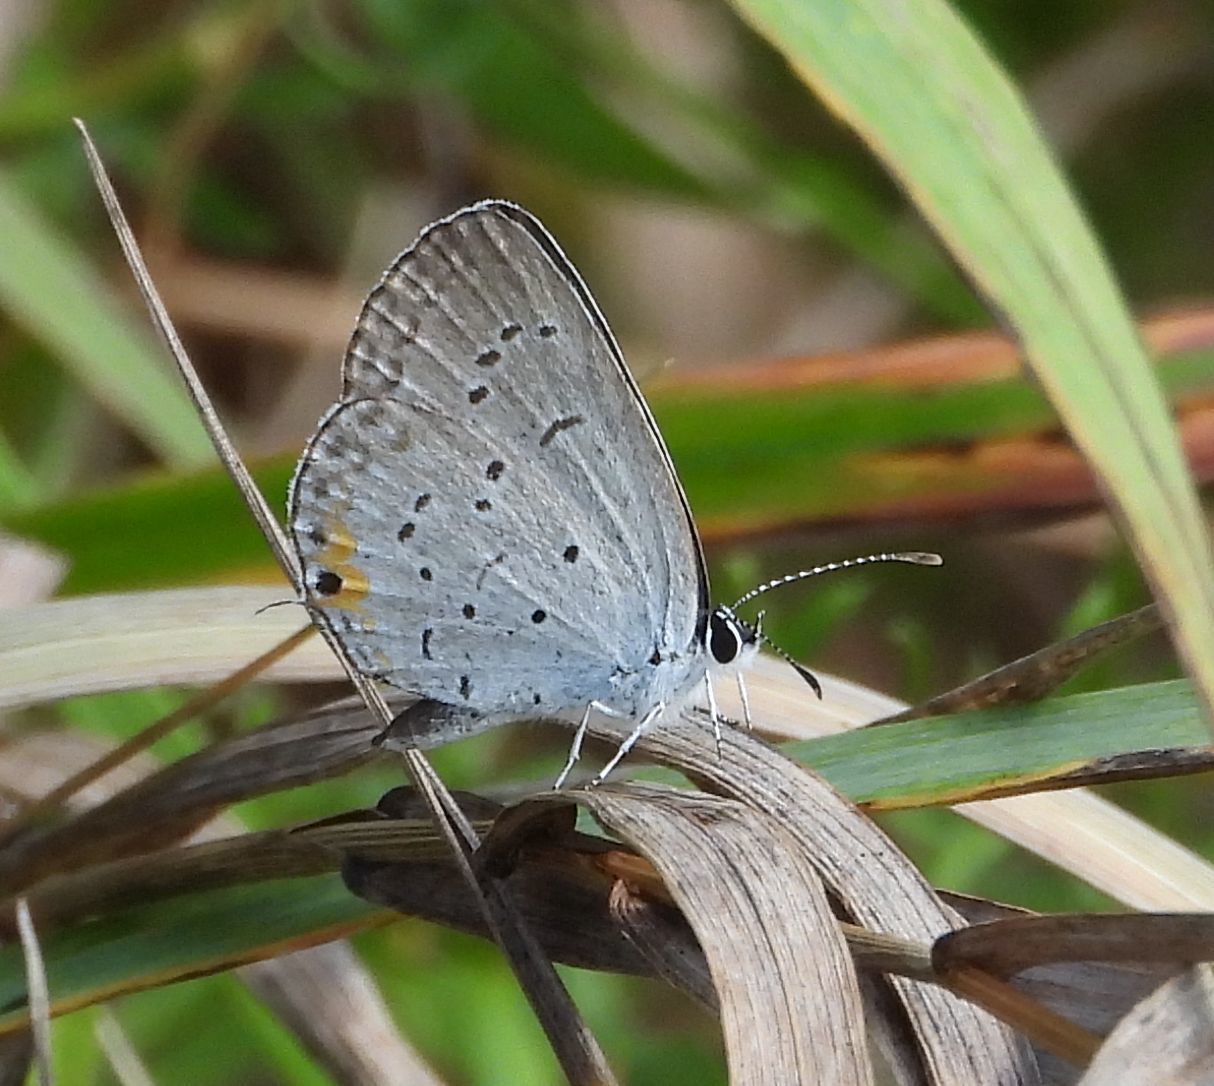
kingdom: Animalia
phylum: Arthropoda
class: Insecta
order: Lepidoptera
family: Lycaenidae
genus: Elkalyce
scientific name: Elkalyce comyntas
